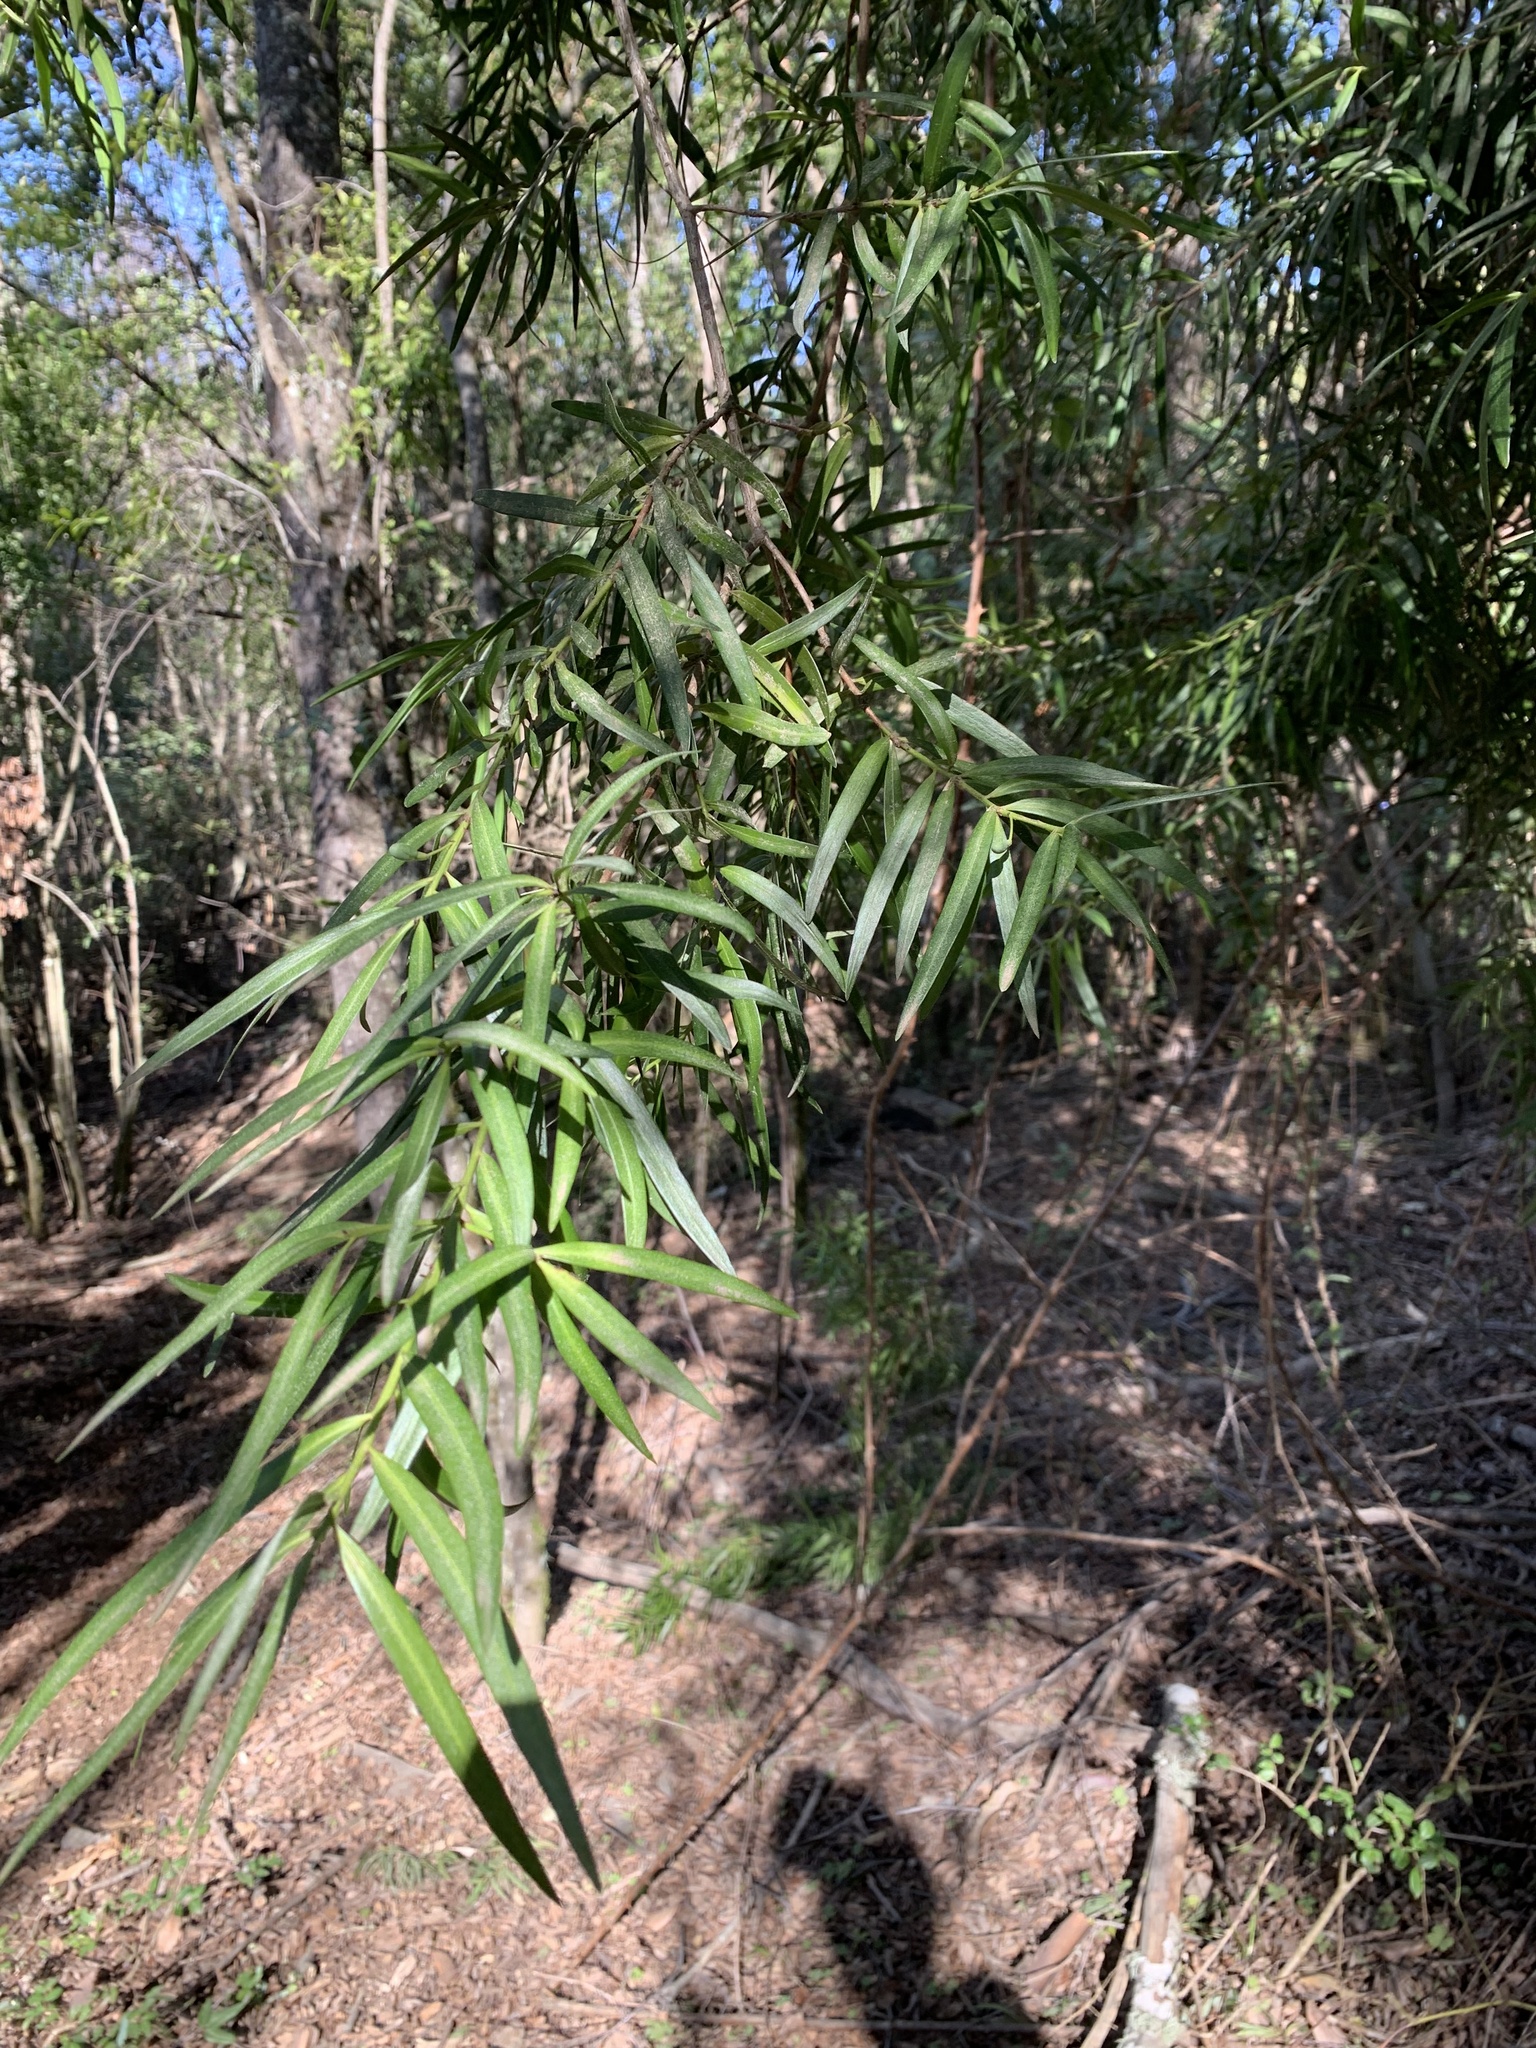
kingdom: Plantae
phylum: Tracheophyta
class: Pinopsida
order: Pinales
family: Podocarpaceae
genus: Podocarpus
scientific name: Podocarpus salignus
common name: Willow-leaf podocarp
